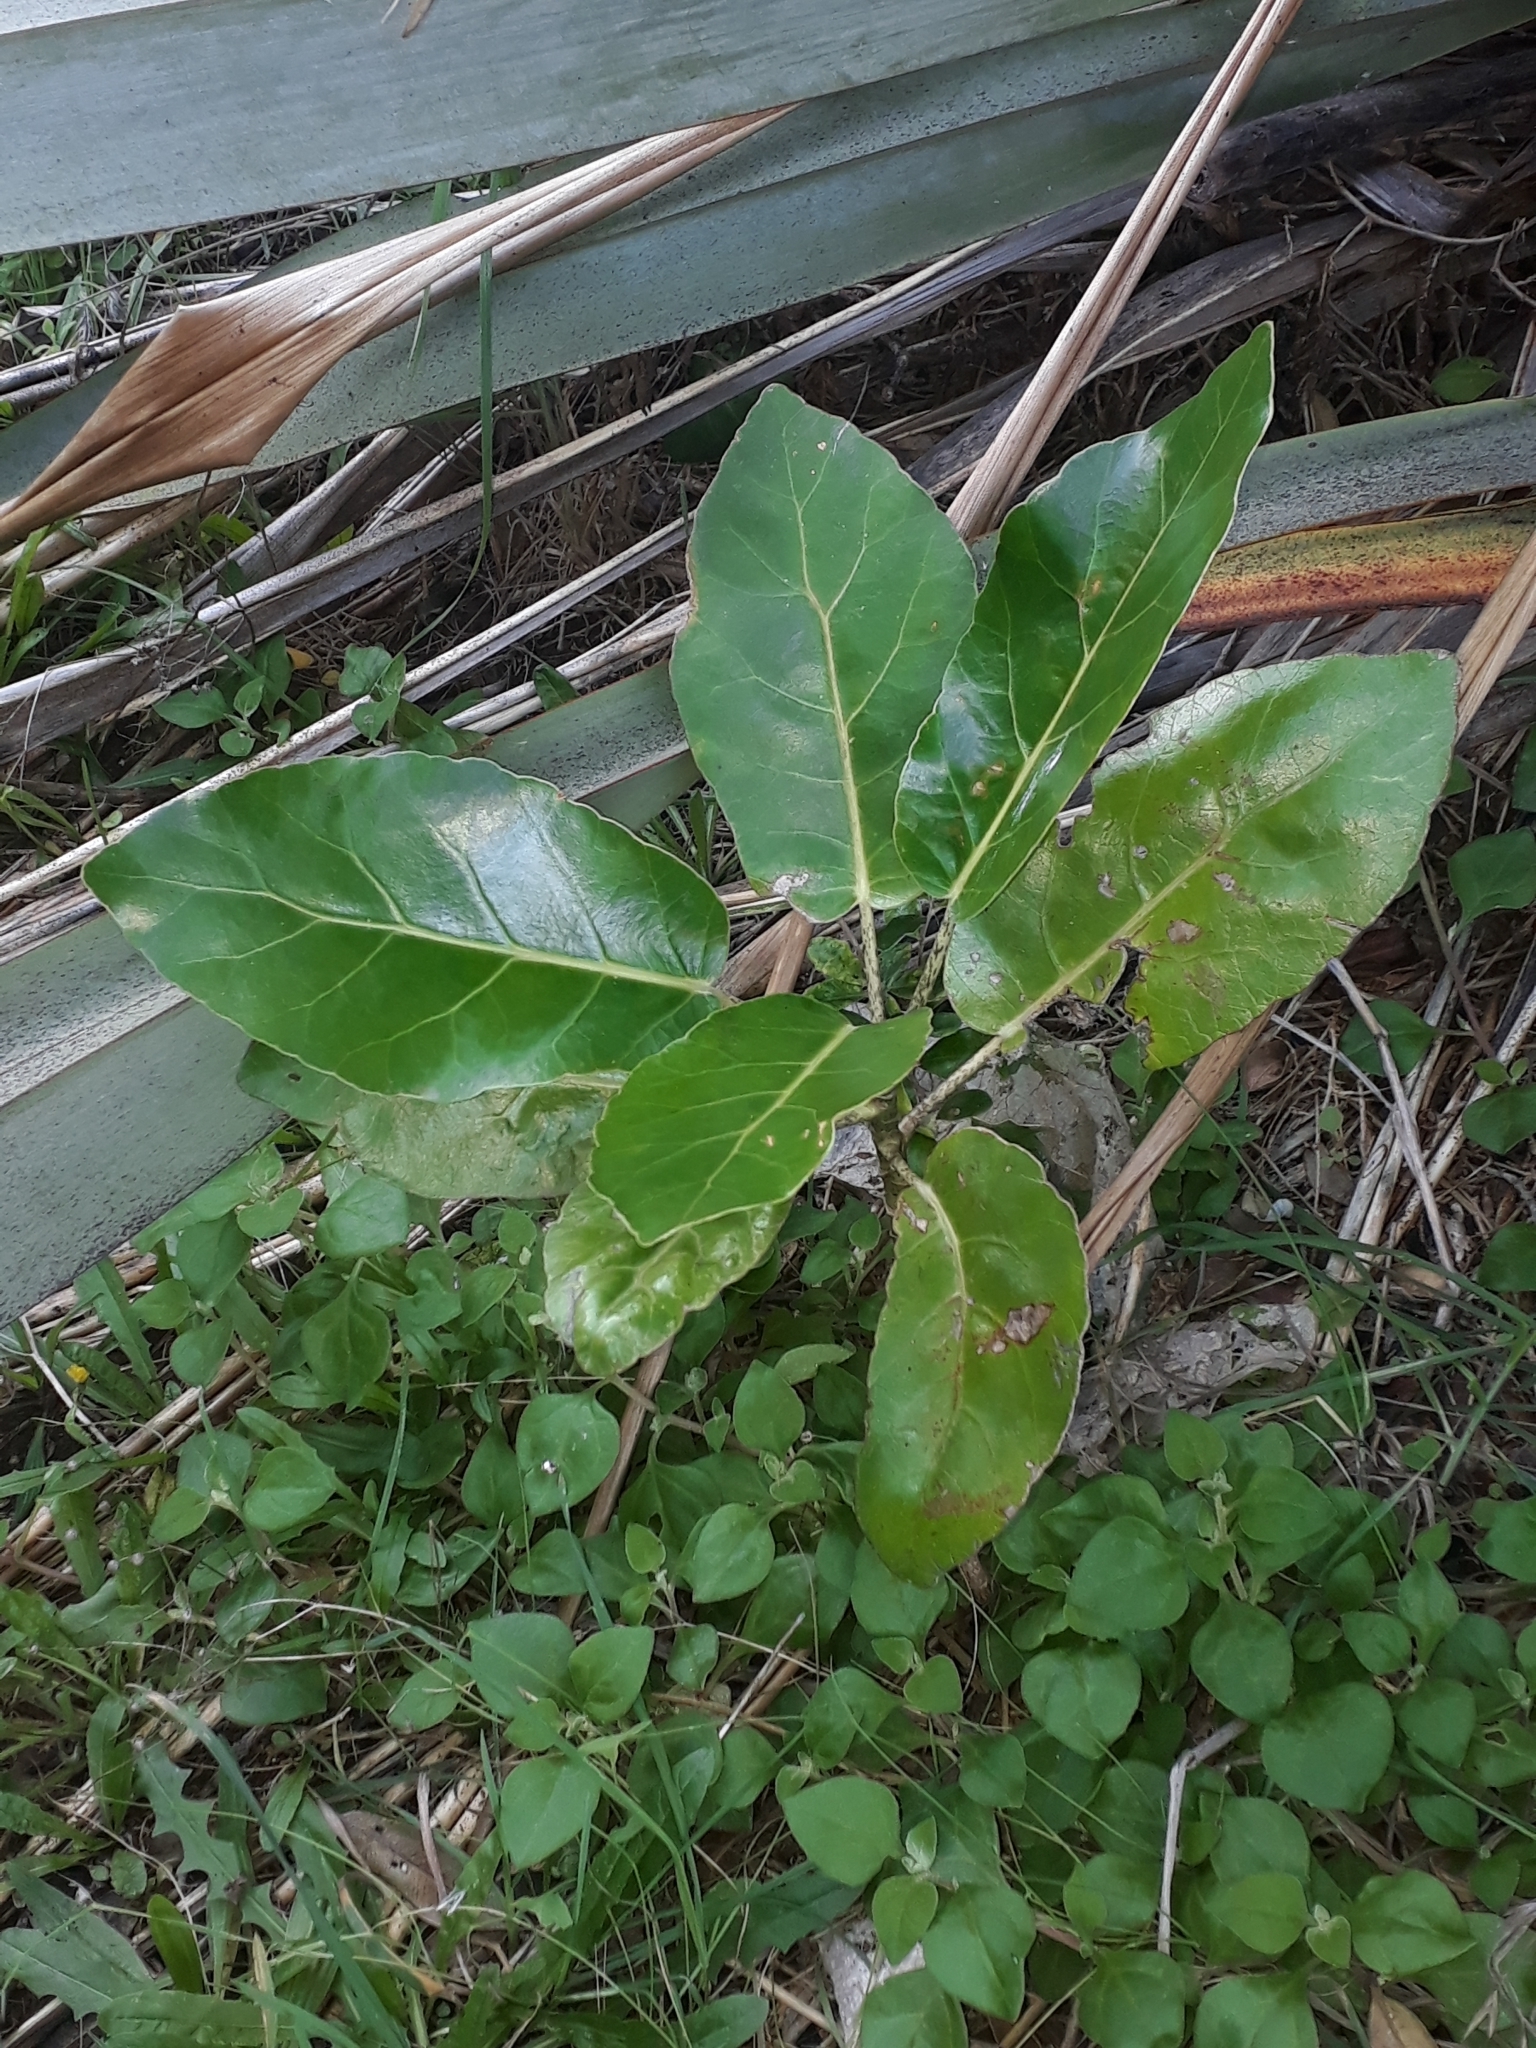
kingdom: Plantae
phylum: Tracheophyta
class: Magnoliopsida
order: Apiales
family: Araliaceae
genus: Meryta
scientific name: Meryta sinclairii
